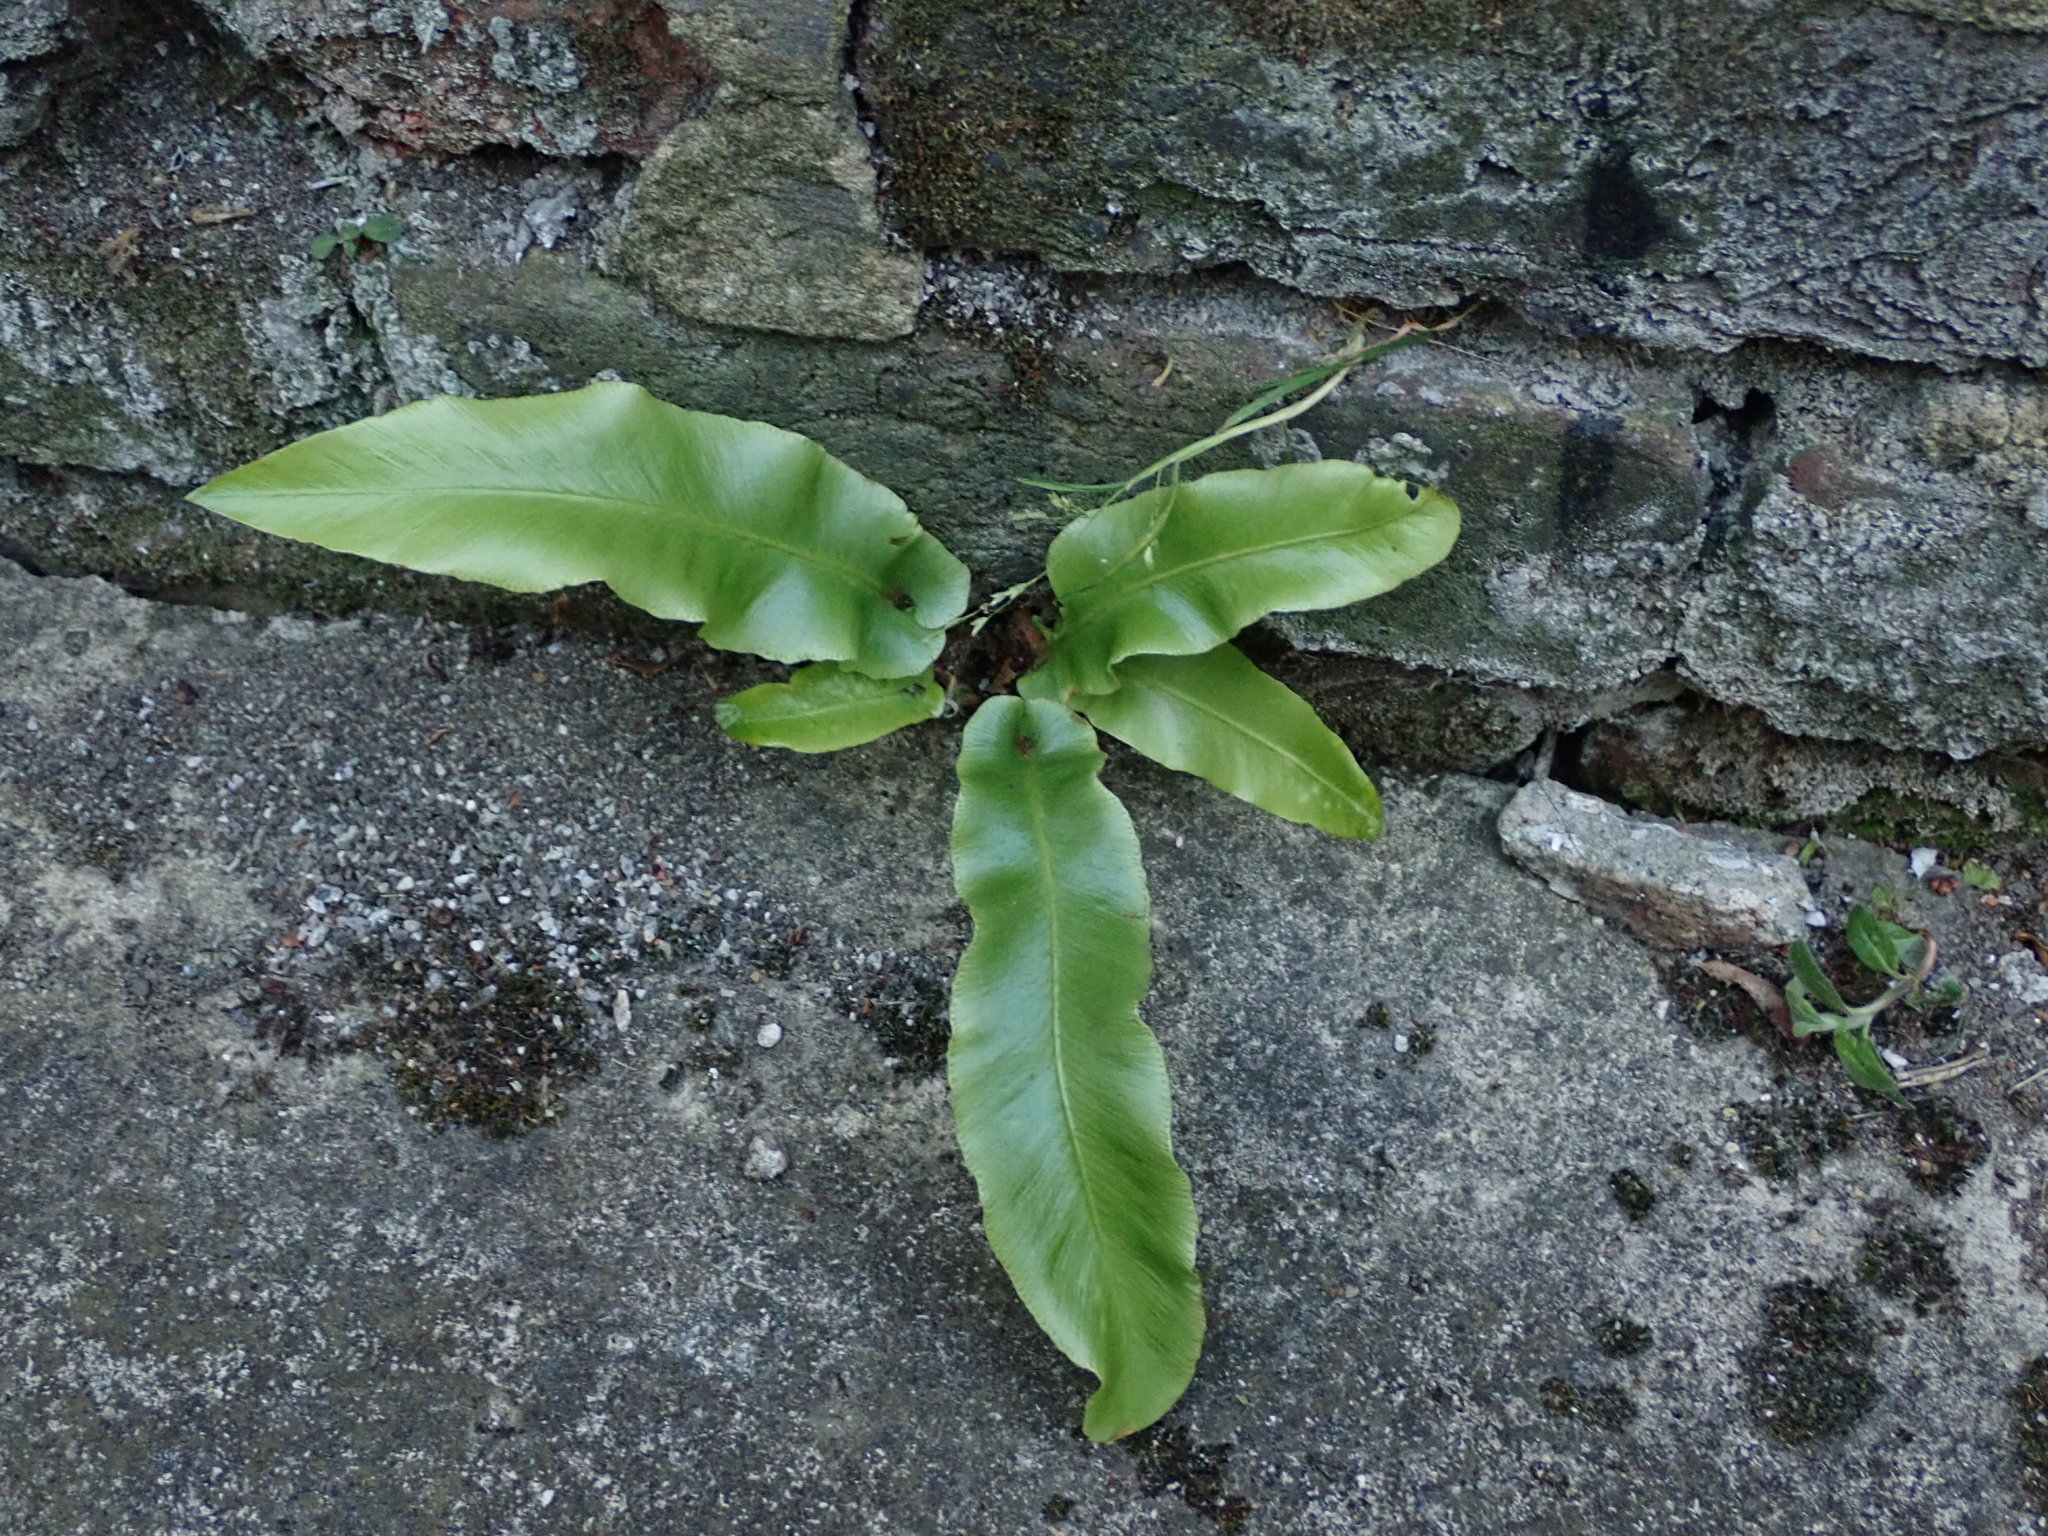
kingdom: Plantae
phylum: Tracheophyta
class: Polypodiopsida
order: Polypodiales
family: Aspleniaceae
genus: Asplenium
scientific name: Asplenium scolopendrium
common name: Hart's-tongue fern
